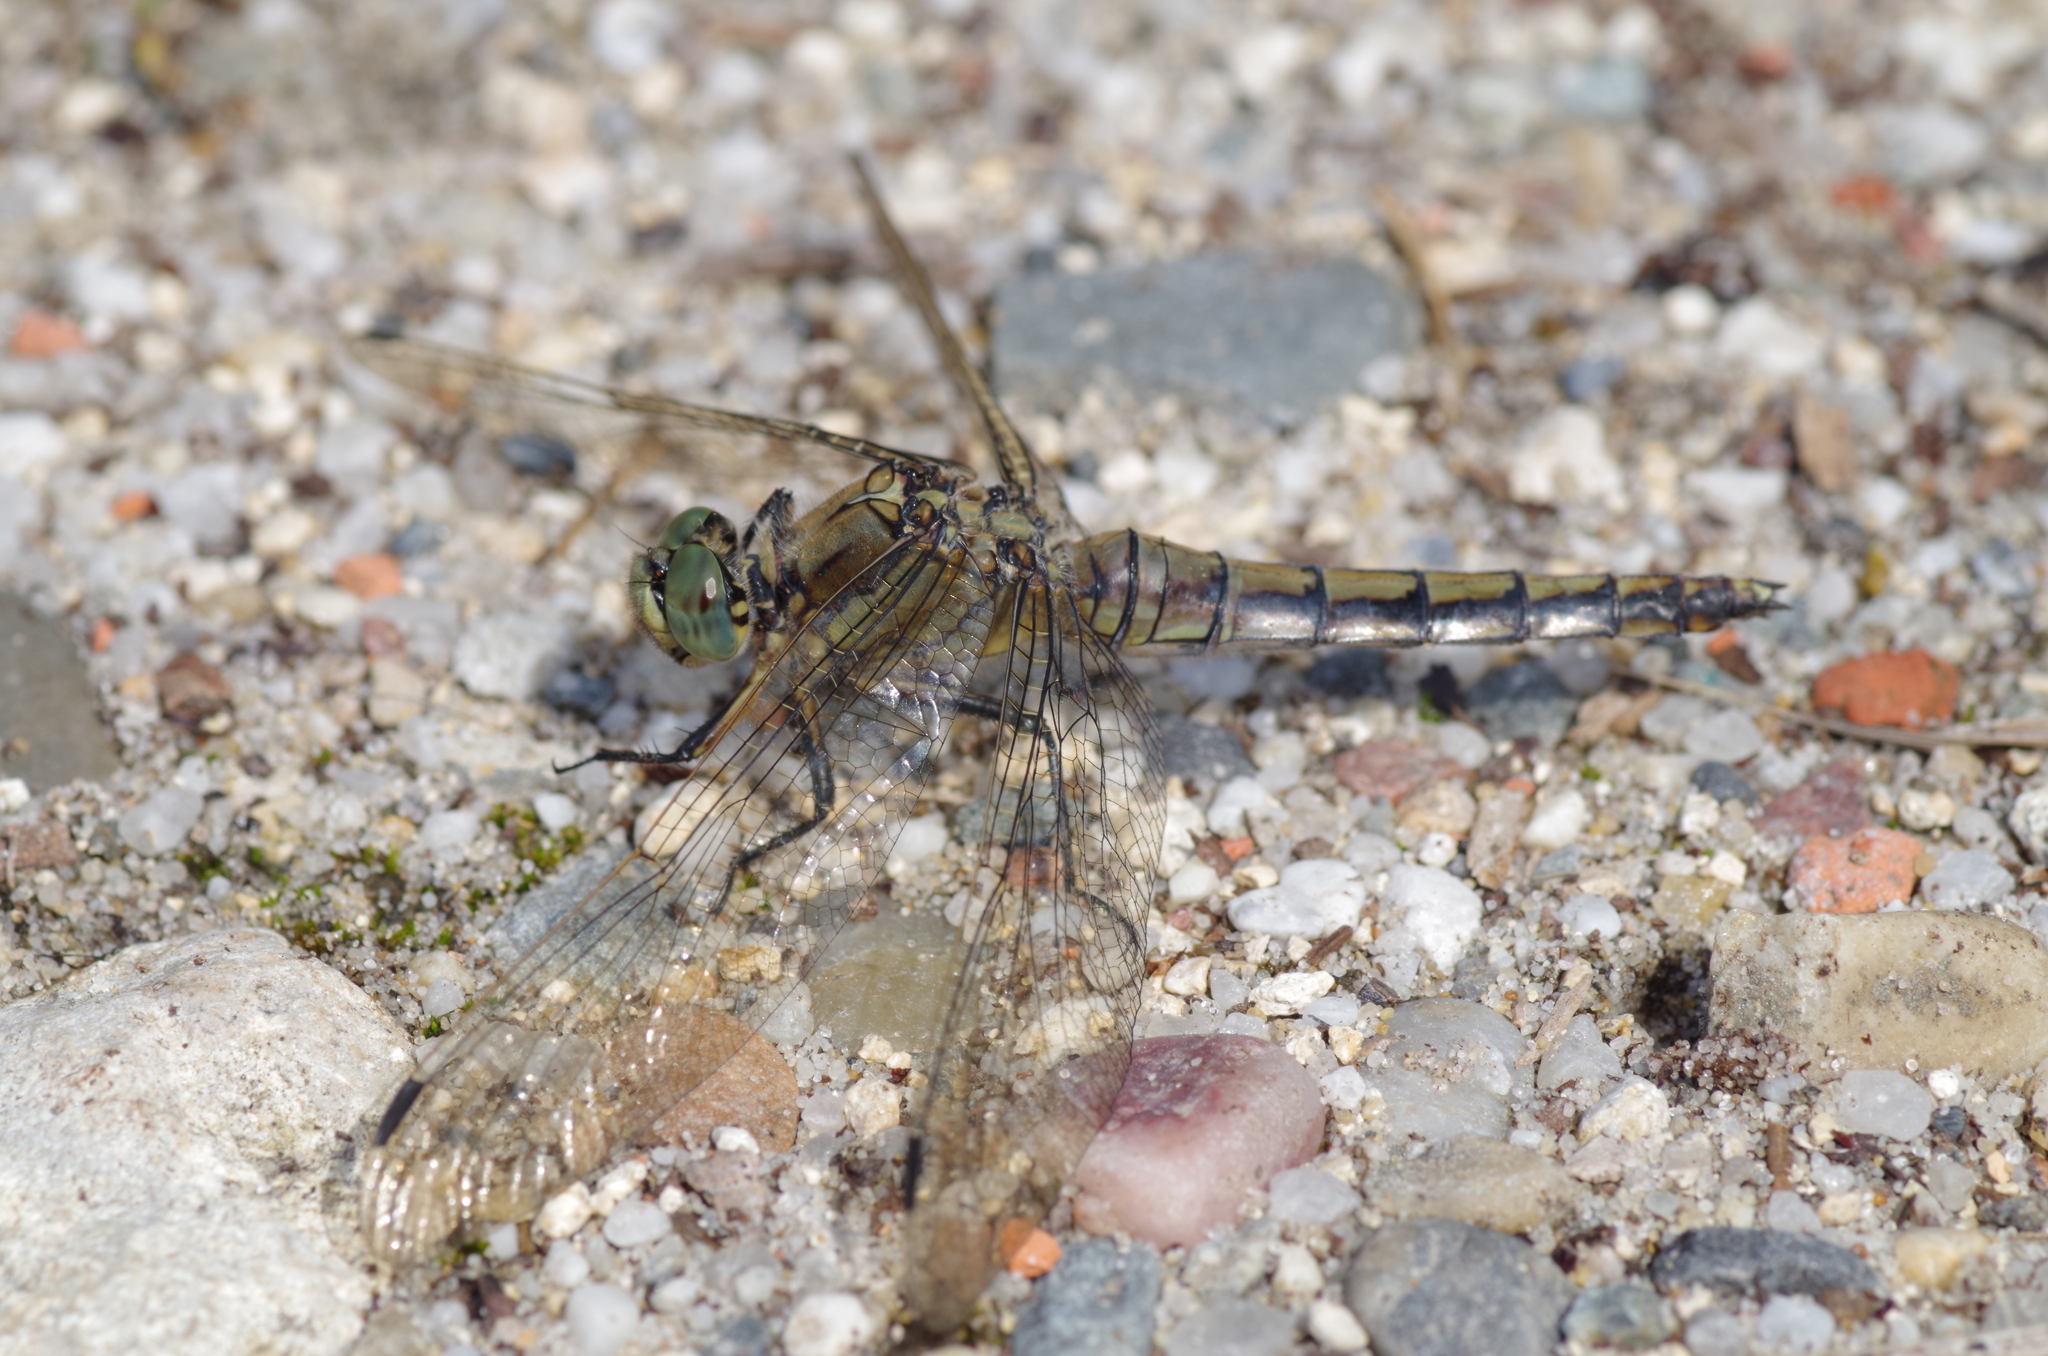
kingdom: Animalia
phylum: Arthropoda
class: Insecta
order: Odonata
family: Libellulidae
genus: Orthetrum
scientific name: Orthetrum cancellatum
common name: Black-tailed skimmer
